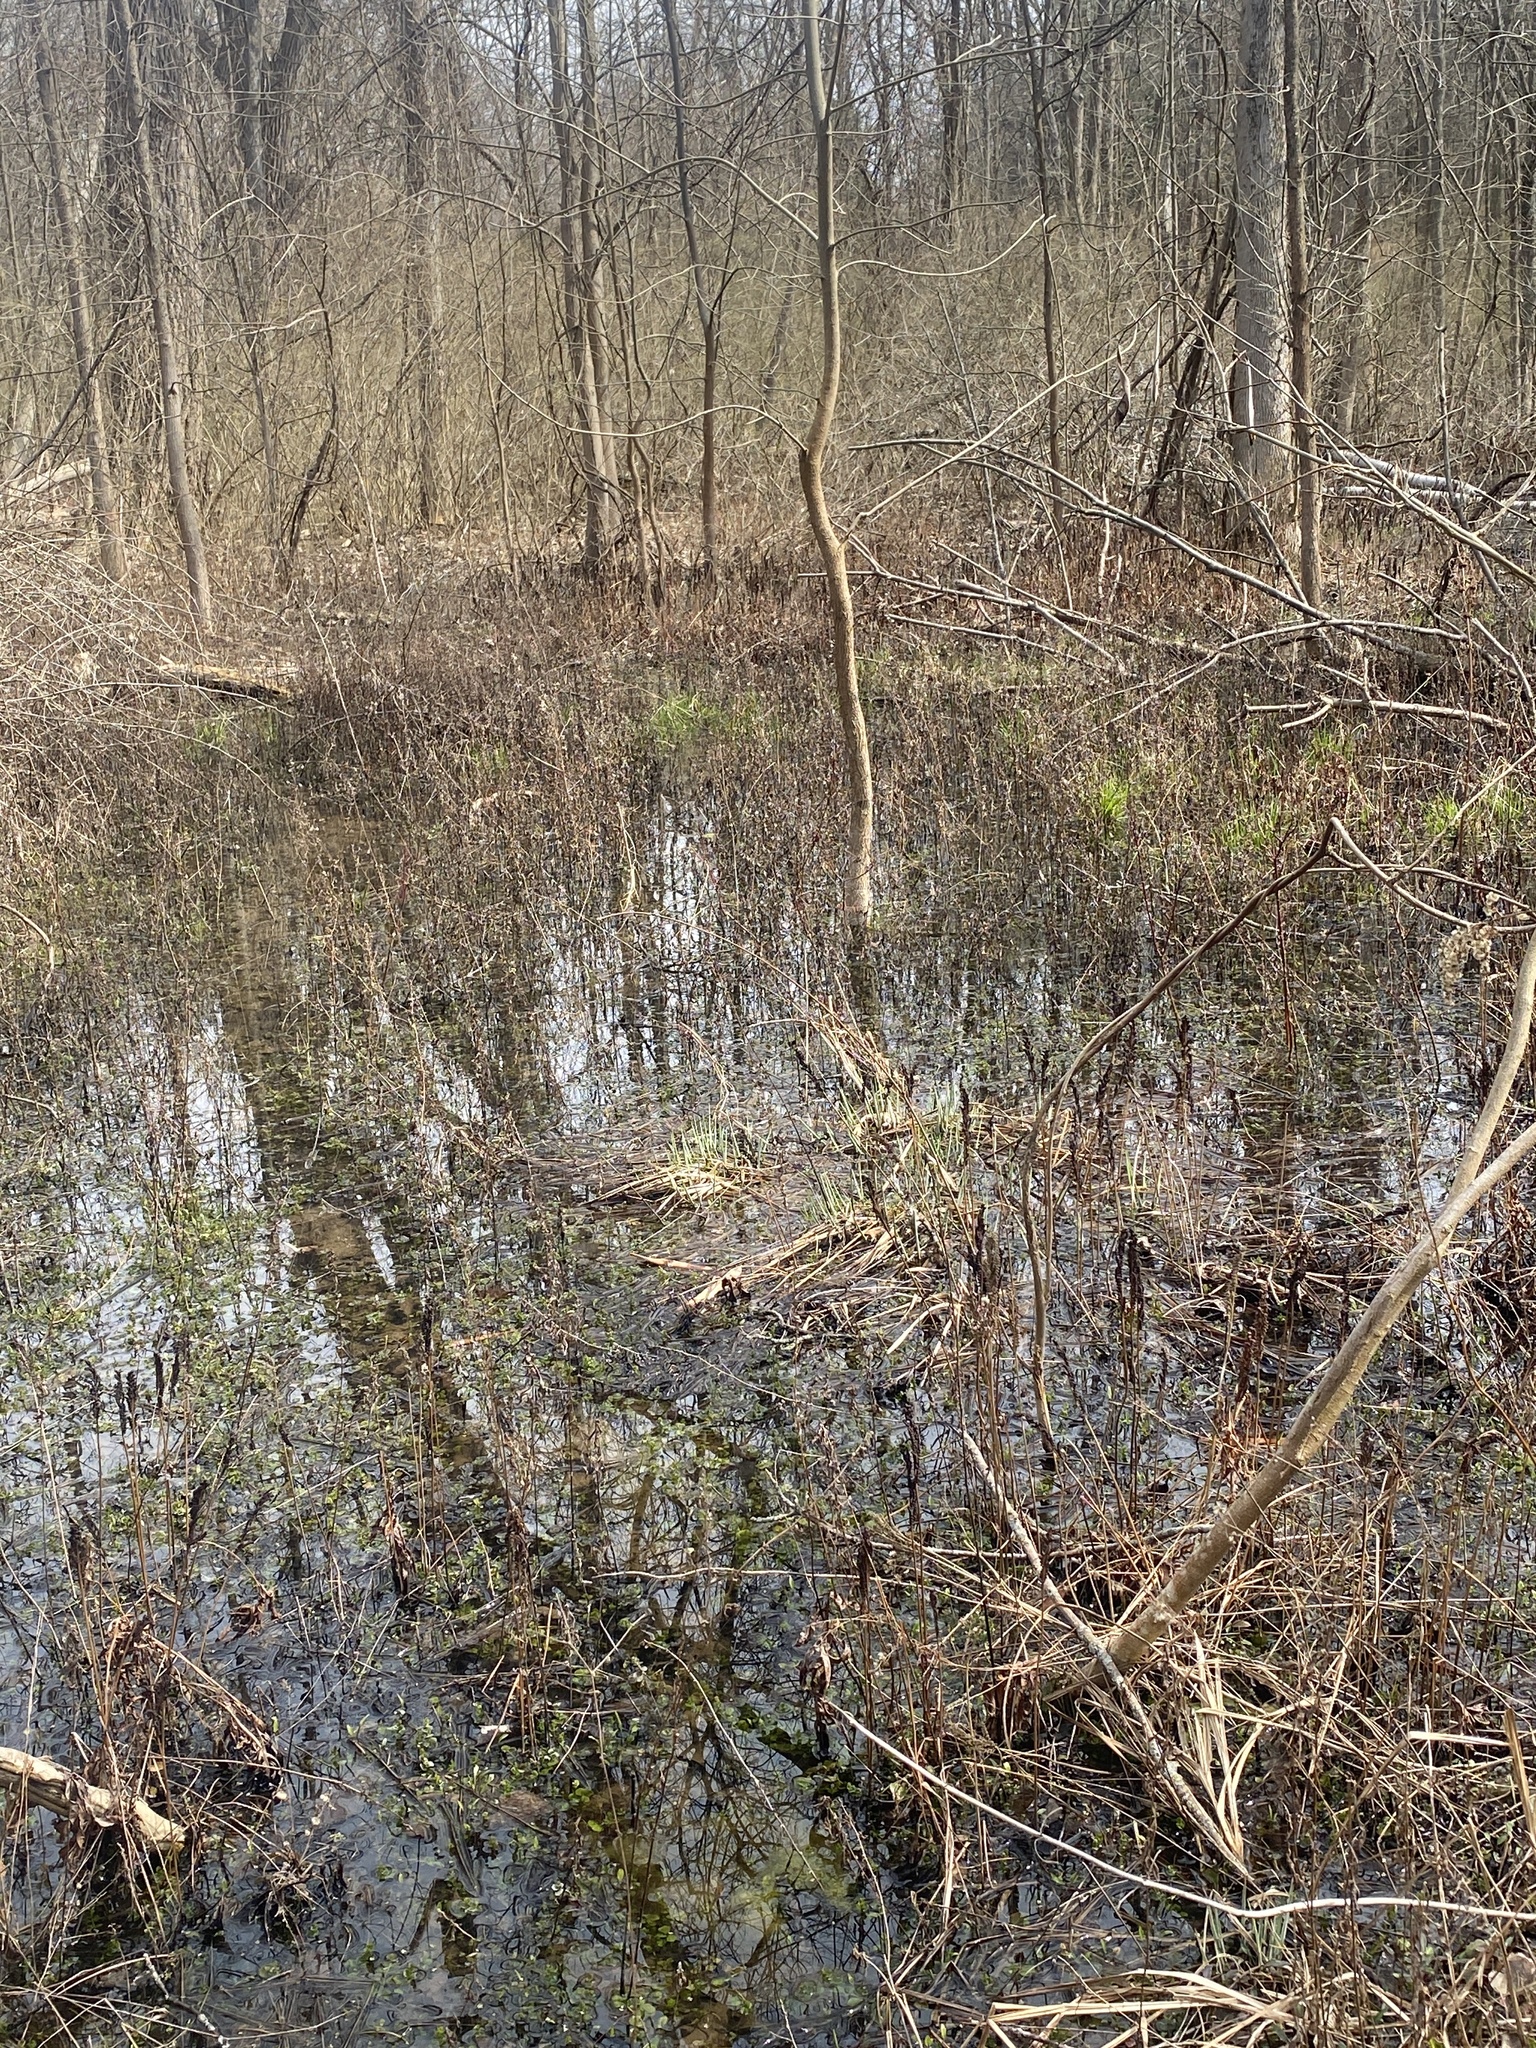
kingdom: Animalia
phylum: Chordata
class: Amphibia
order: Anura
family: Hylidae
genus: Pseudacris
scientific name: Pseudacris crucifer
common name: Spring peeper
